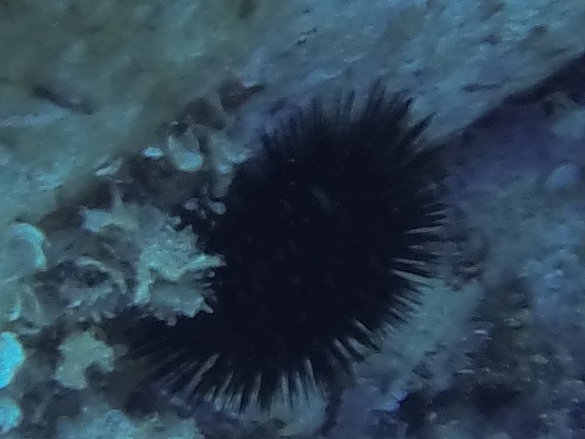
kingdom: Animalia
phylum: Echinodermata
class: Echinoidea
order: Arbacioida
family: Arbaciidae
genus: Arbacia
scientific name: Arbacia lixula
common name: Black sea urchin
